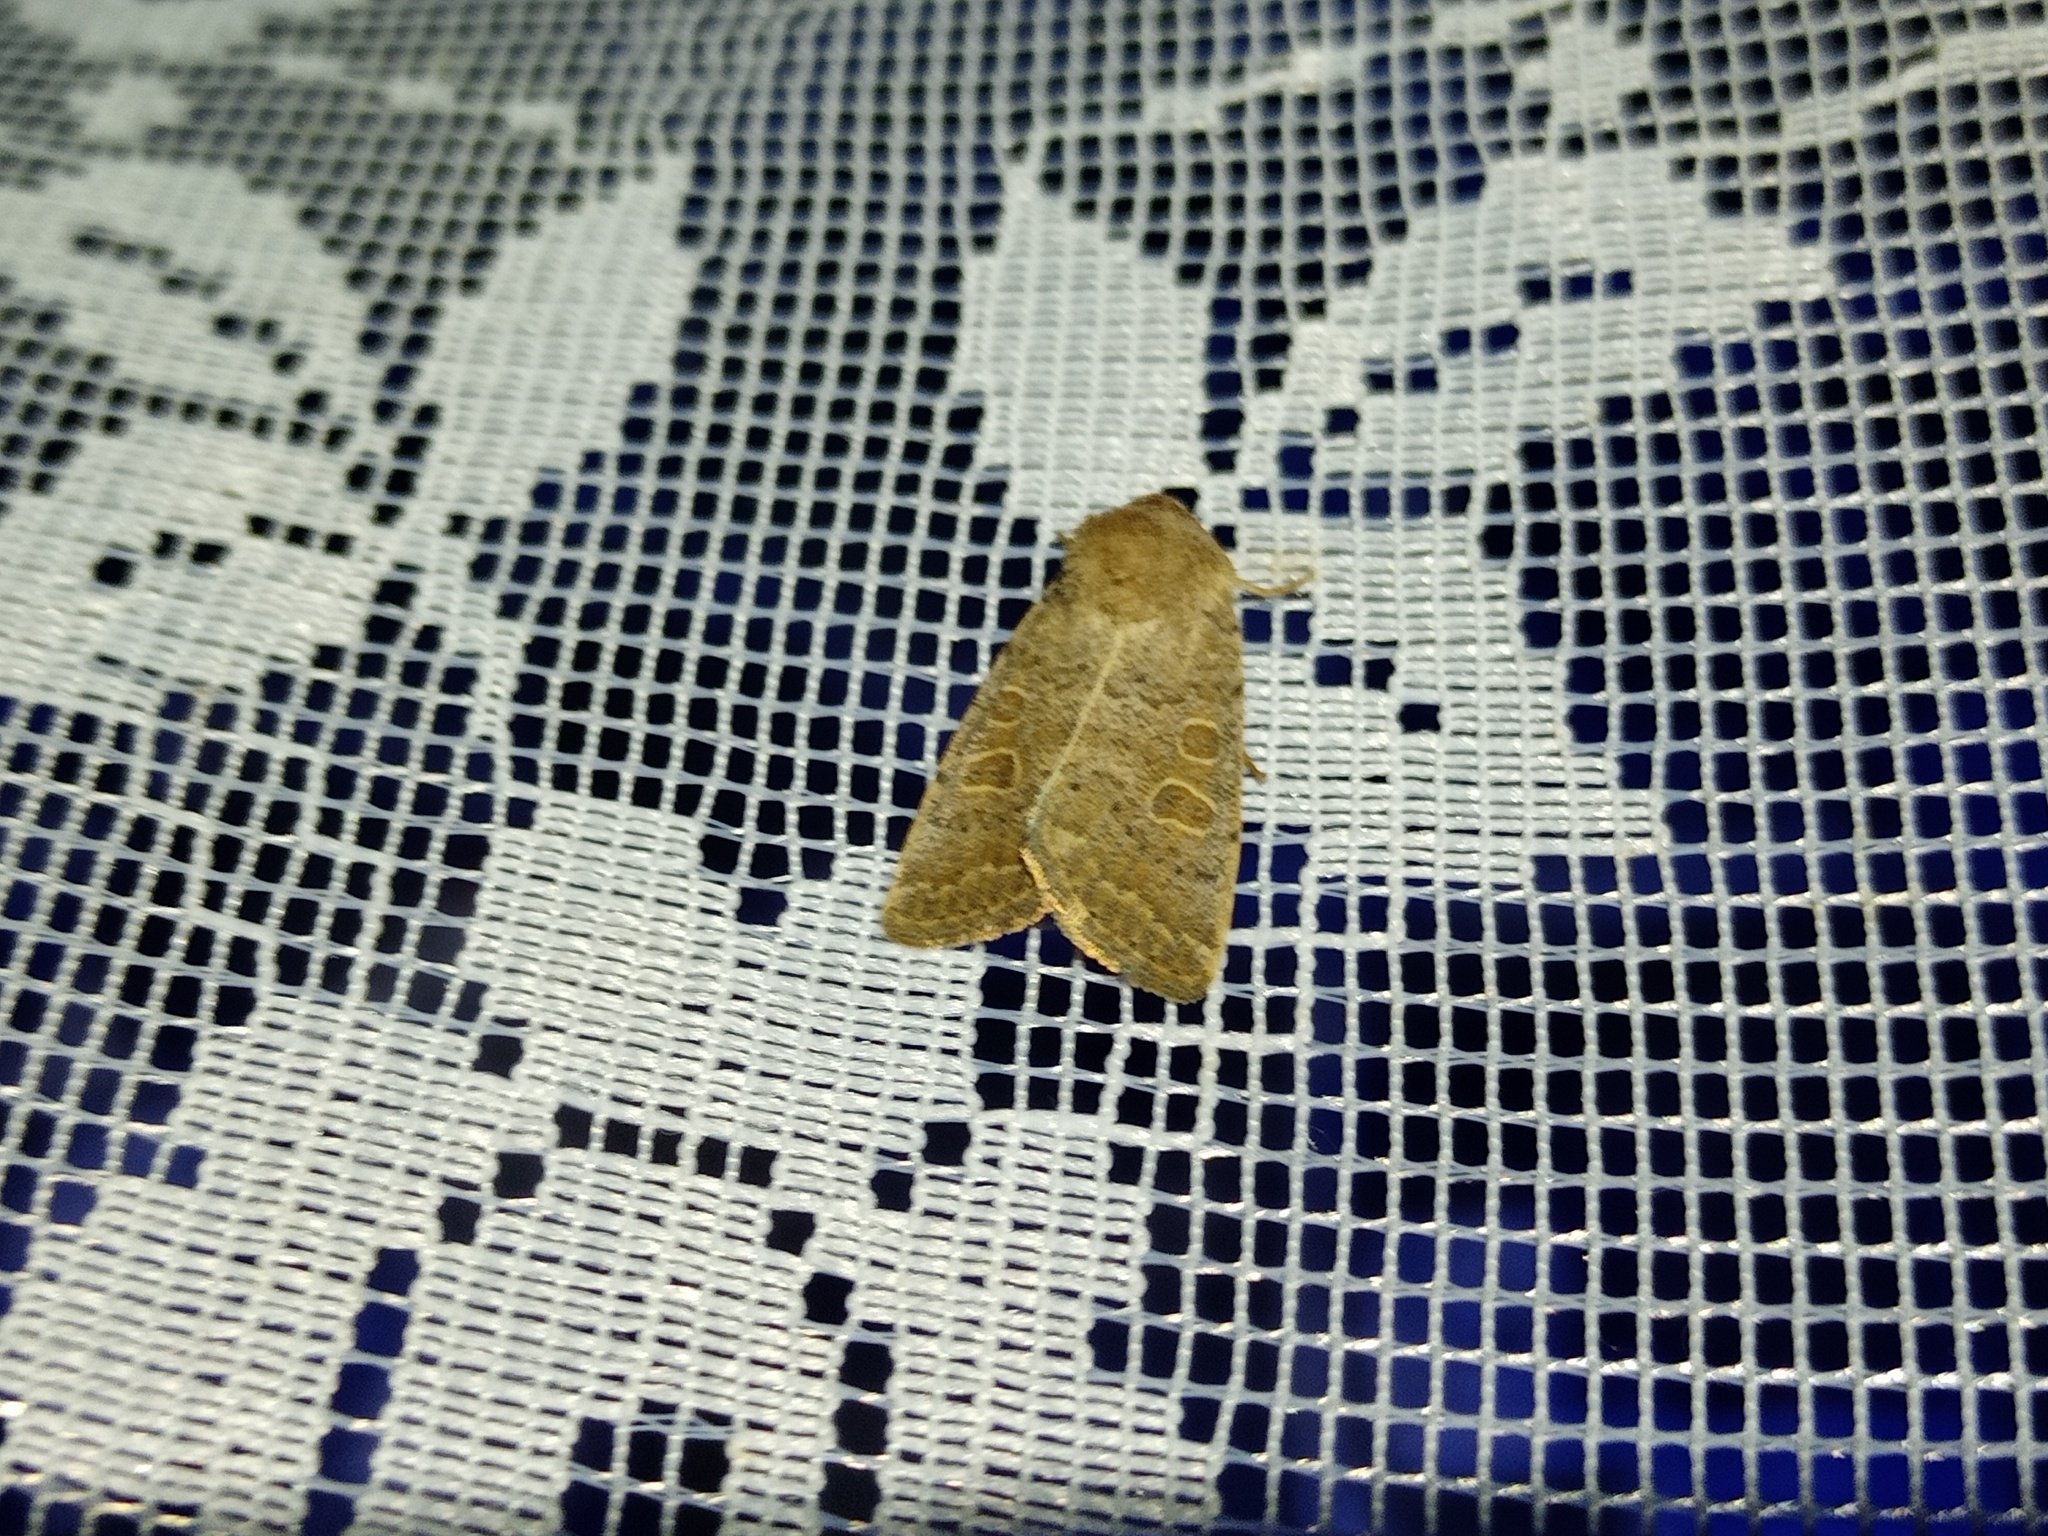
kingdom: Animalia
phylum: Arthropoda
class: Insecta
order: Lepidoptera
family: Noctuidae
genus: Hoplodrina
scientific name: Hoplodrina ambigua
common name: Vine's rustic
